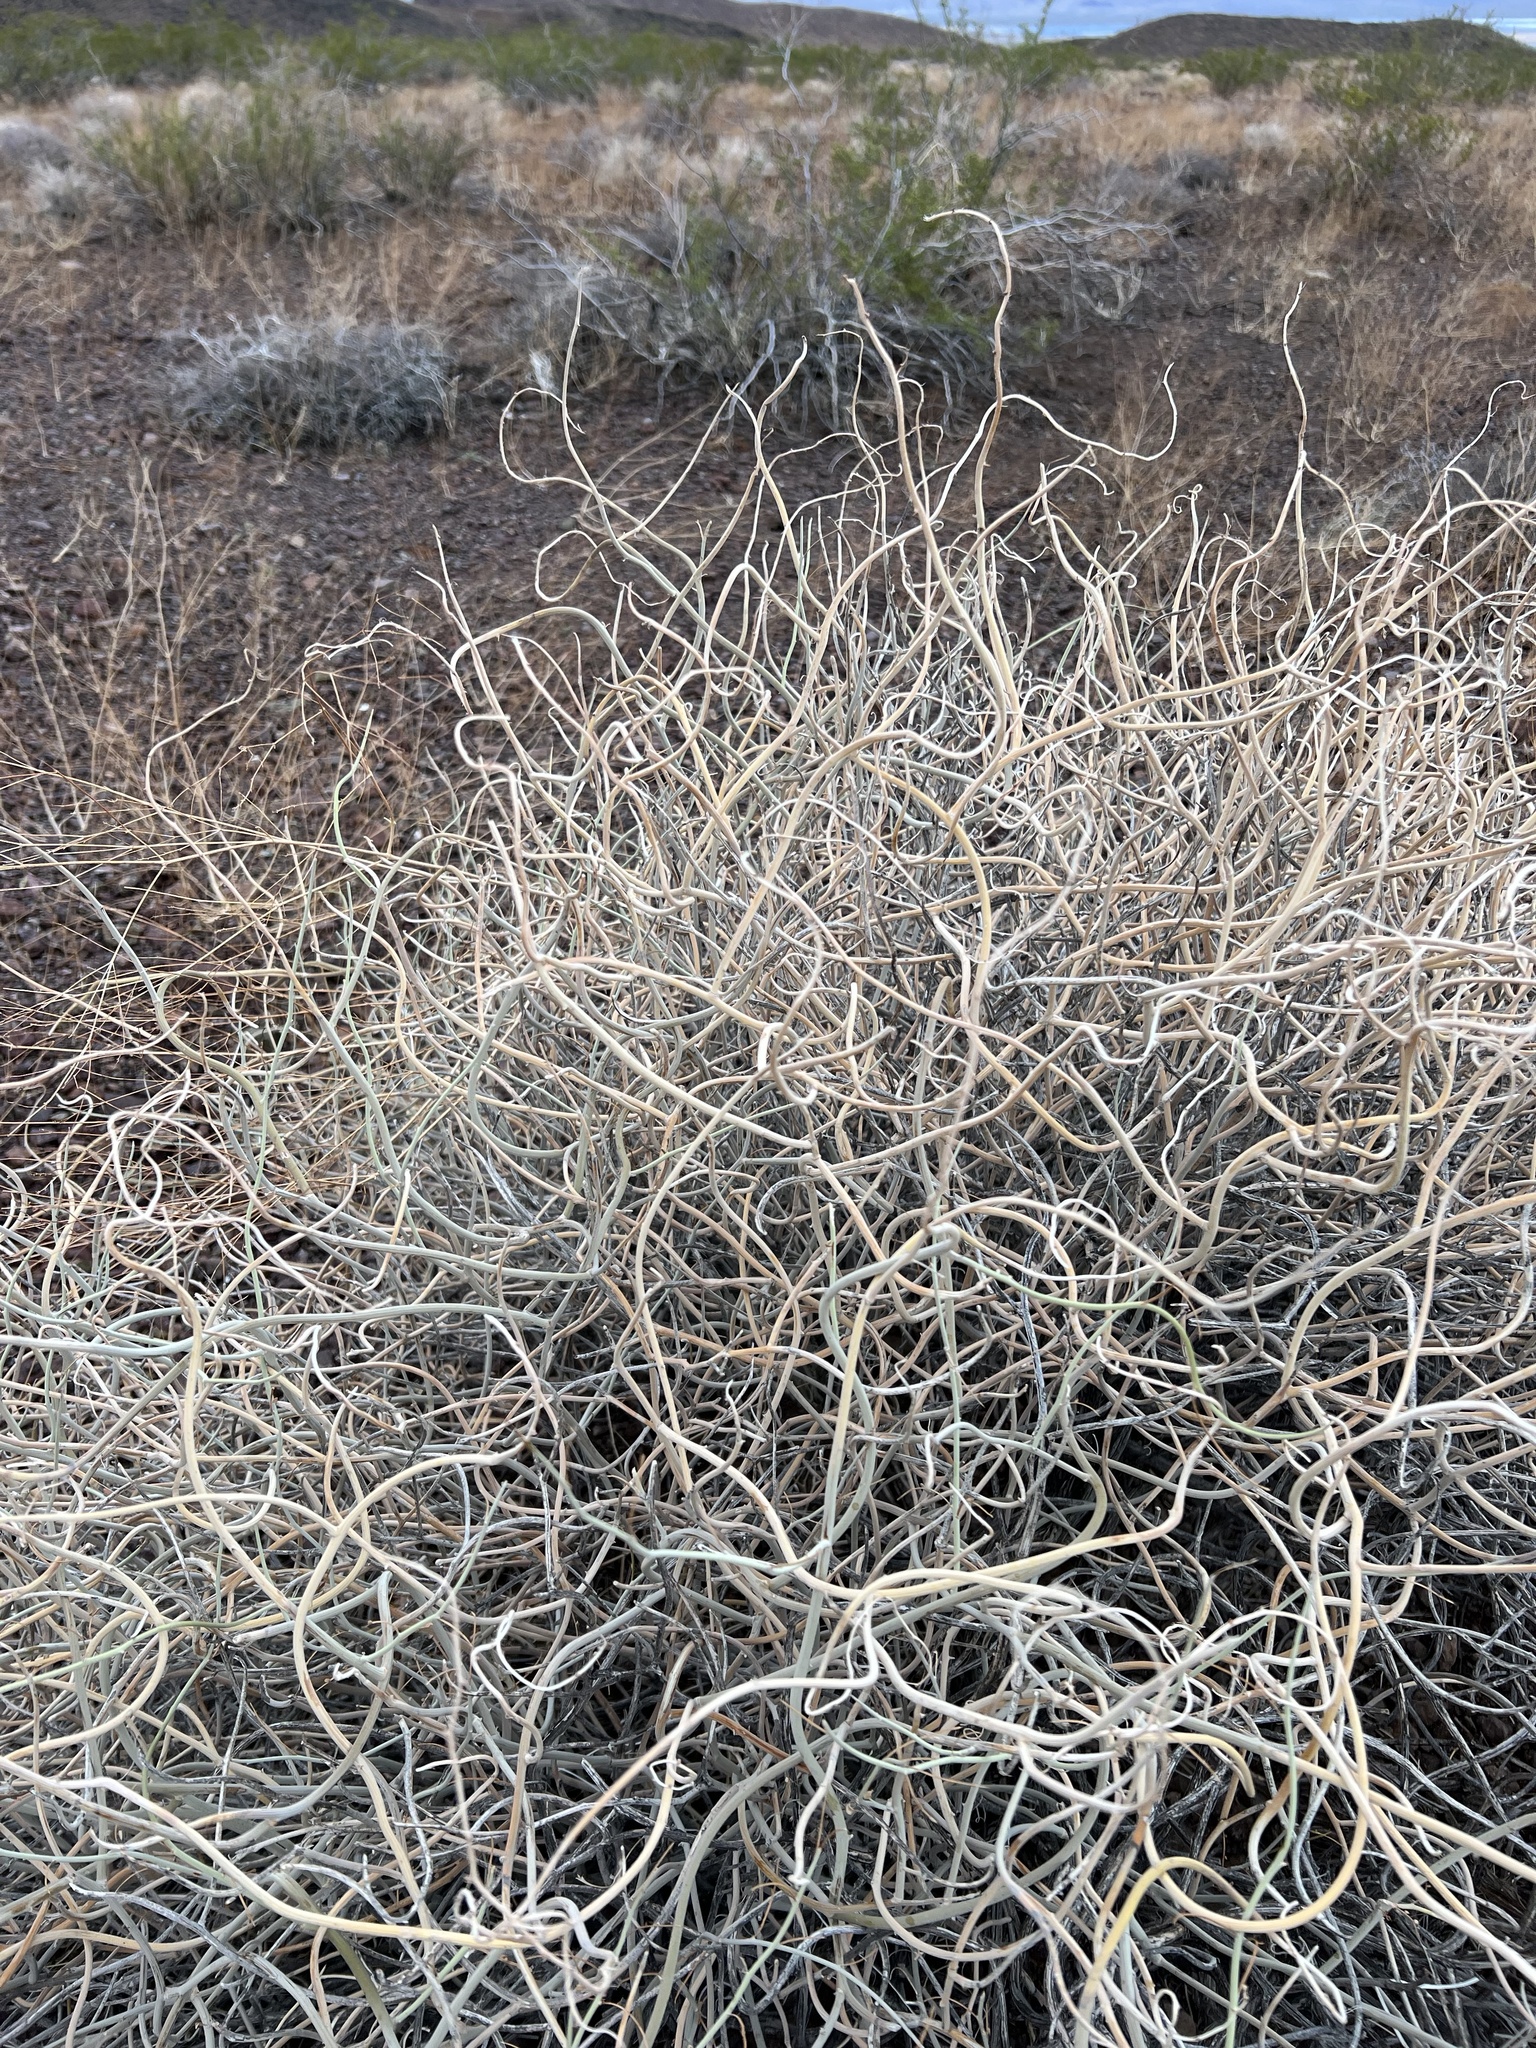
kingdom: Plantae
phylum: Tracheophyta
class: Magnoliopsida
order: Fabales
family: Fabaceae
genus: Senna
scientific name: Senna armata
